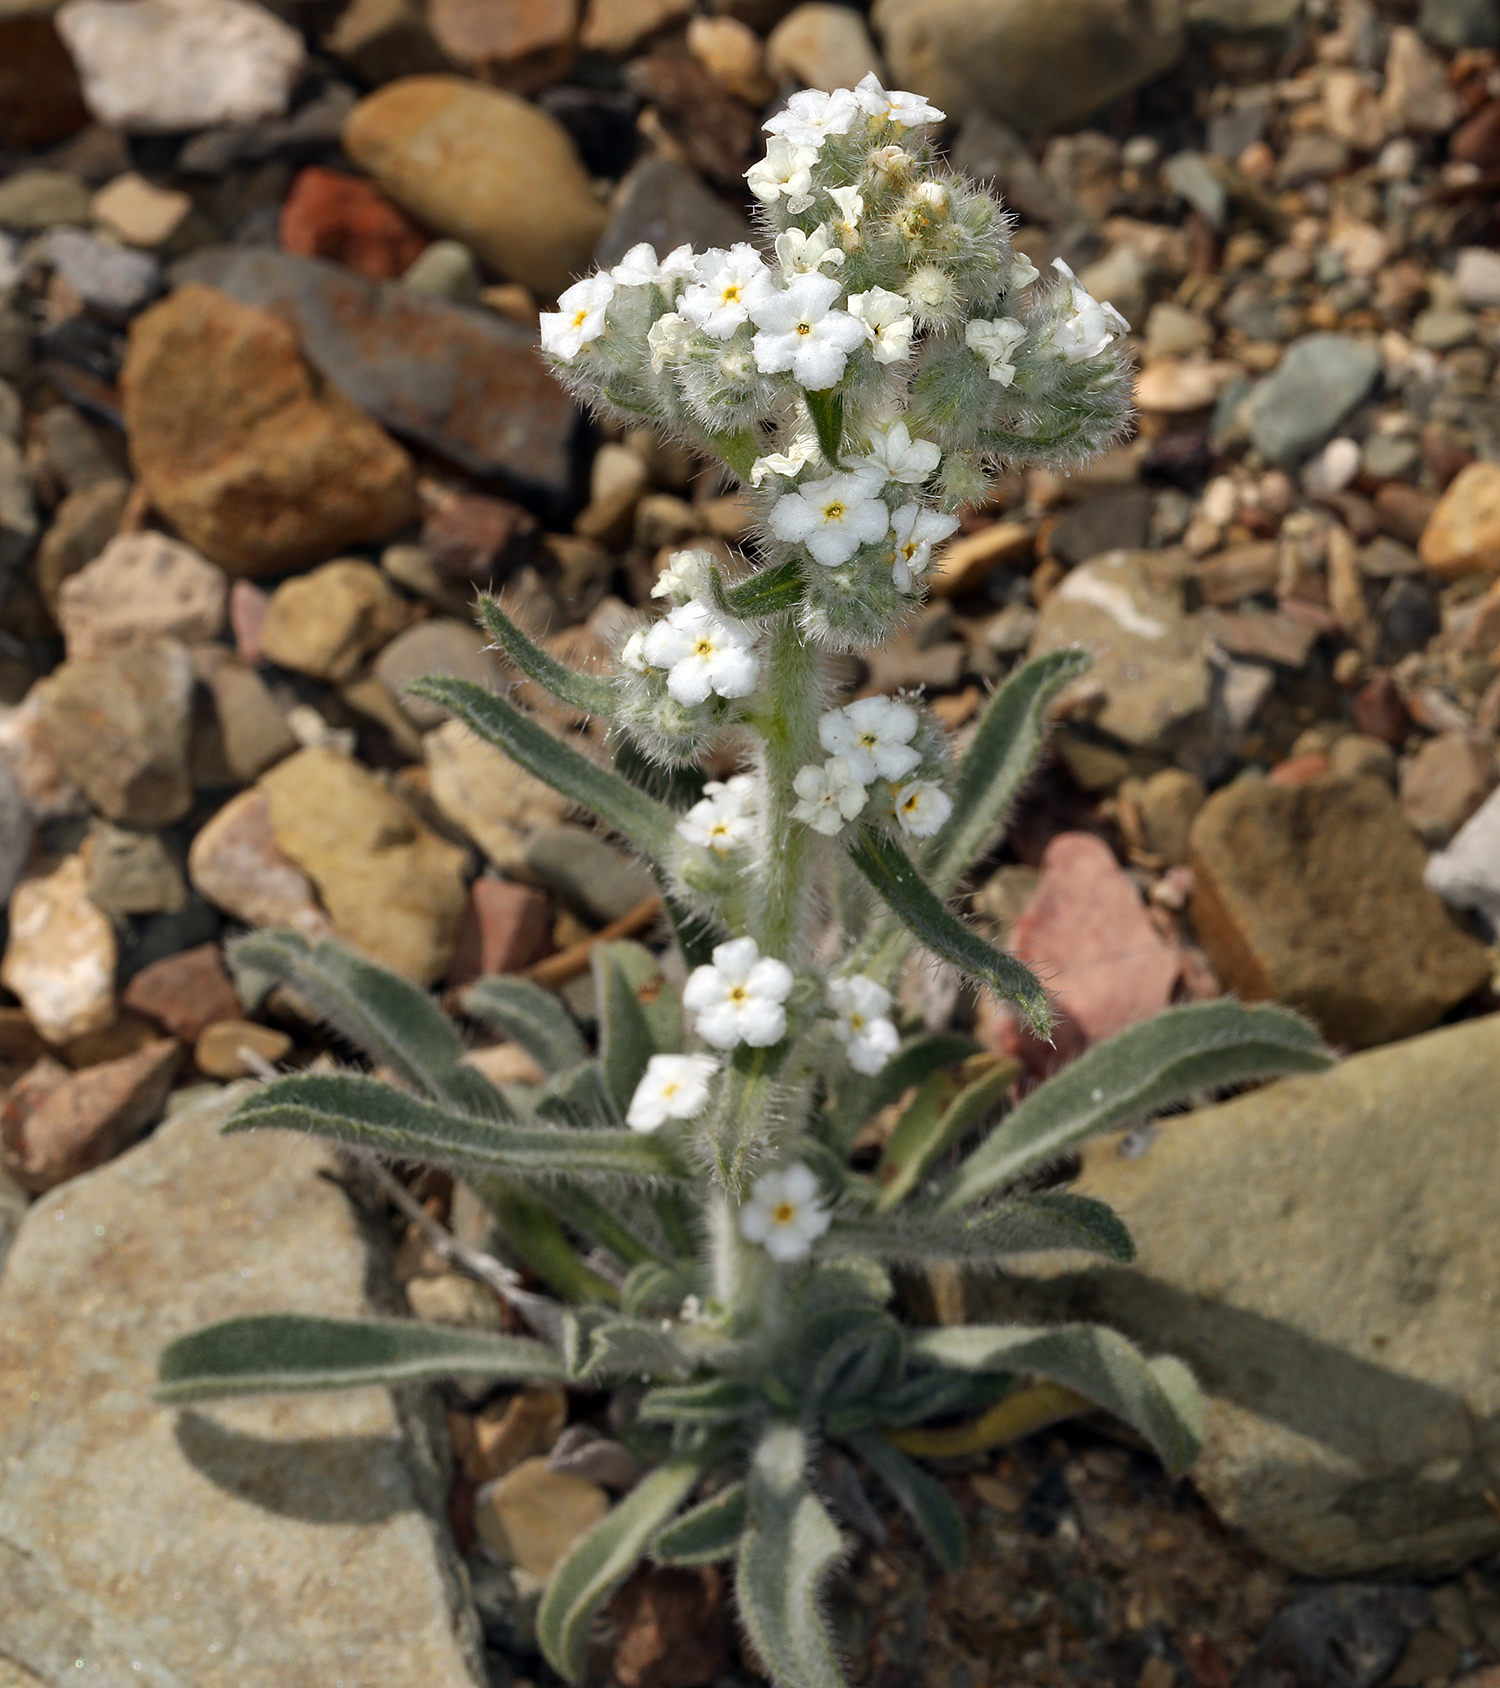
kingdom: Plantae
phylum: Tracheophyta
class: Magnoliopsida
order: Boraginales
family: Boraginaceae
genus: Oreocarya
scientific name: Oreocarya hoffmannii
